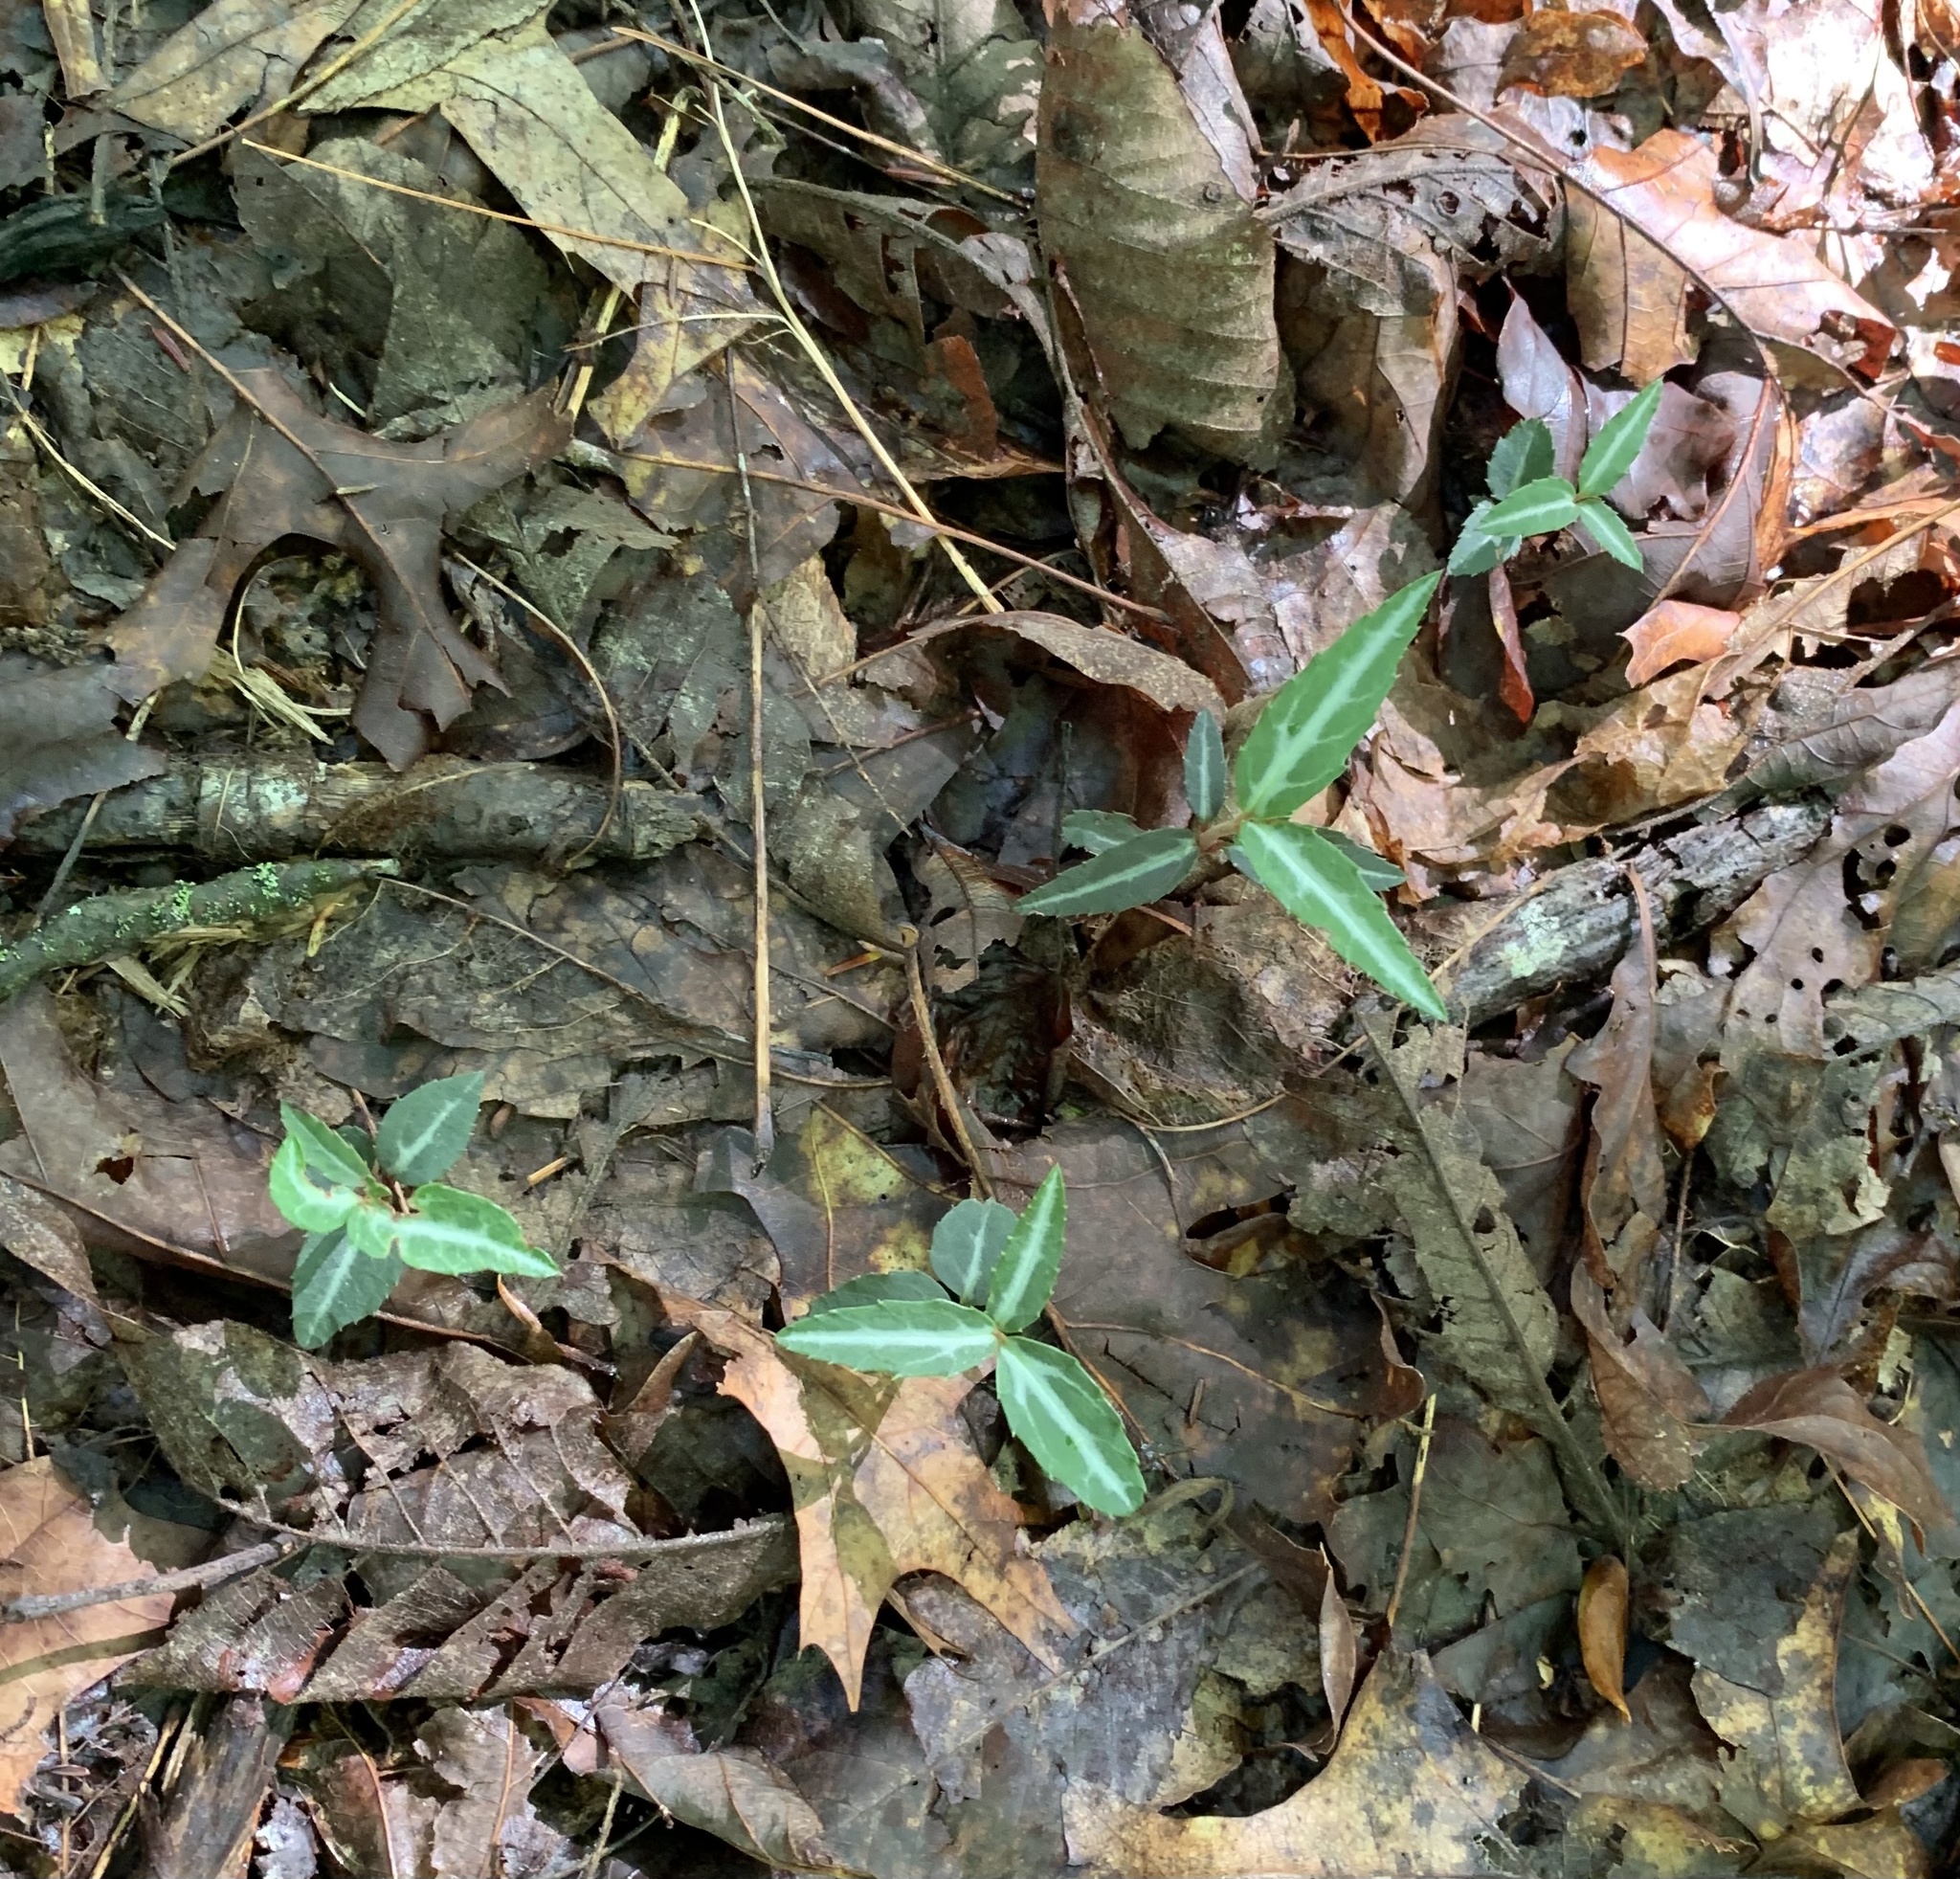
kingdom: Plantae
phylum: Tracheophyta
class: Magnoliopsida
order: Ericales
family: Ericaceae
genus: Chimaphila
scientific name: Chimaphila maculata
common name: Spotted pipsissewa
